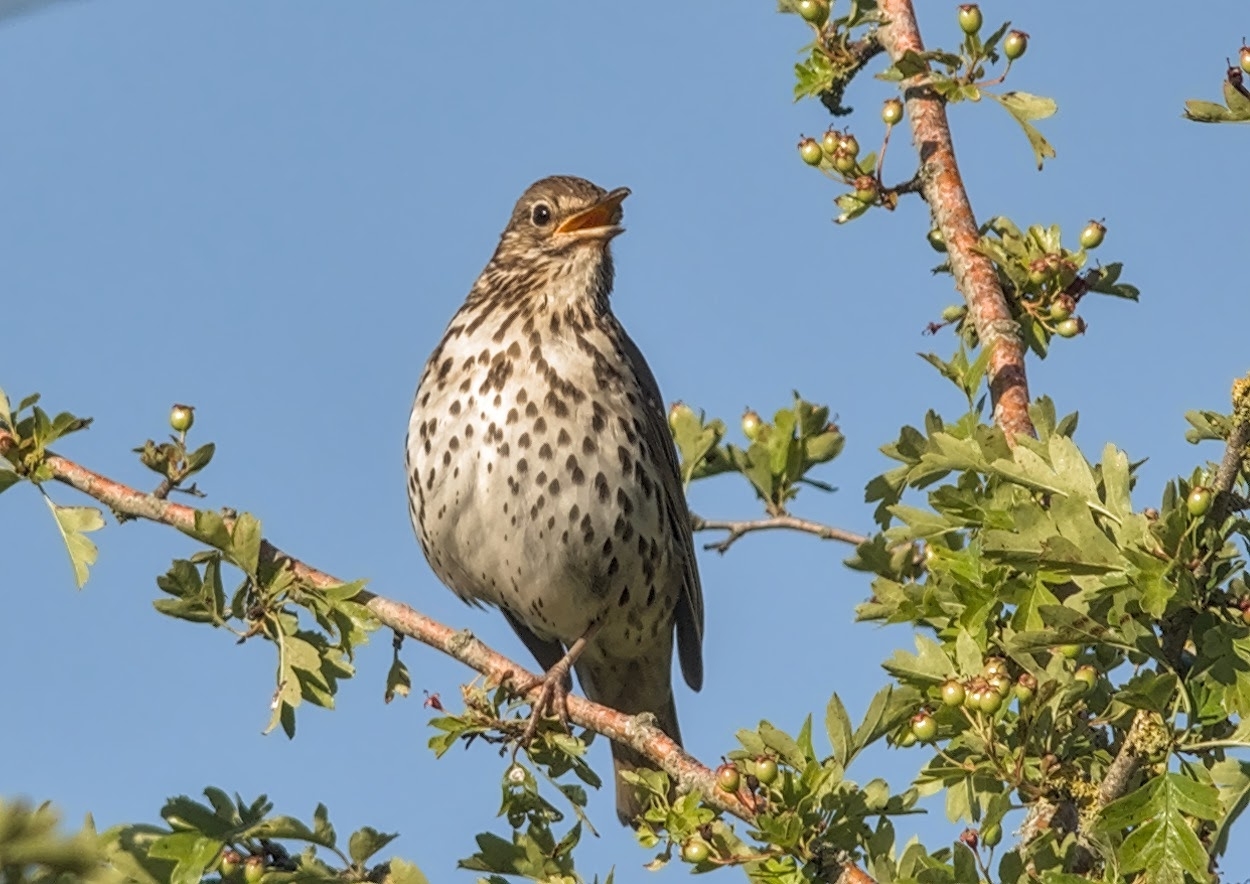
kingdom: Animalia
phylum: Chordata
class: Aves
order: Passeriformes
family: Turdidae
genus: Turdus
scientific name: Turdus philomelos
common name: Song thrush
